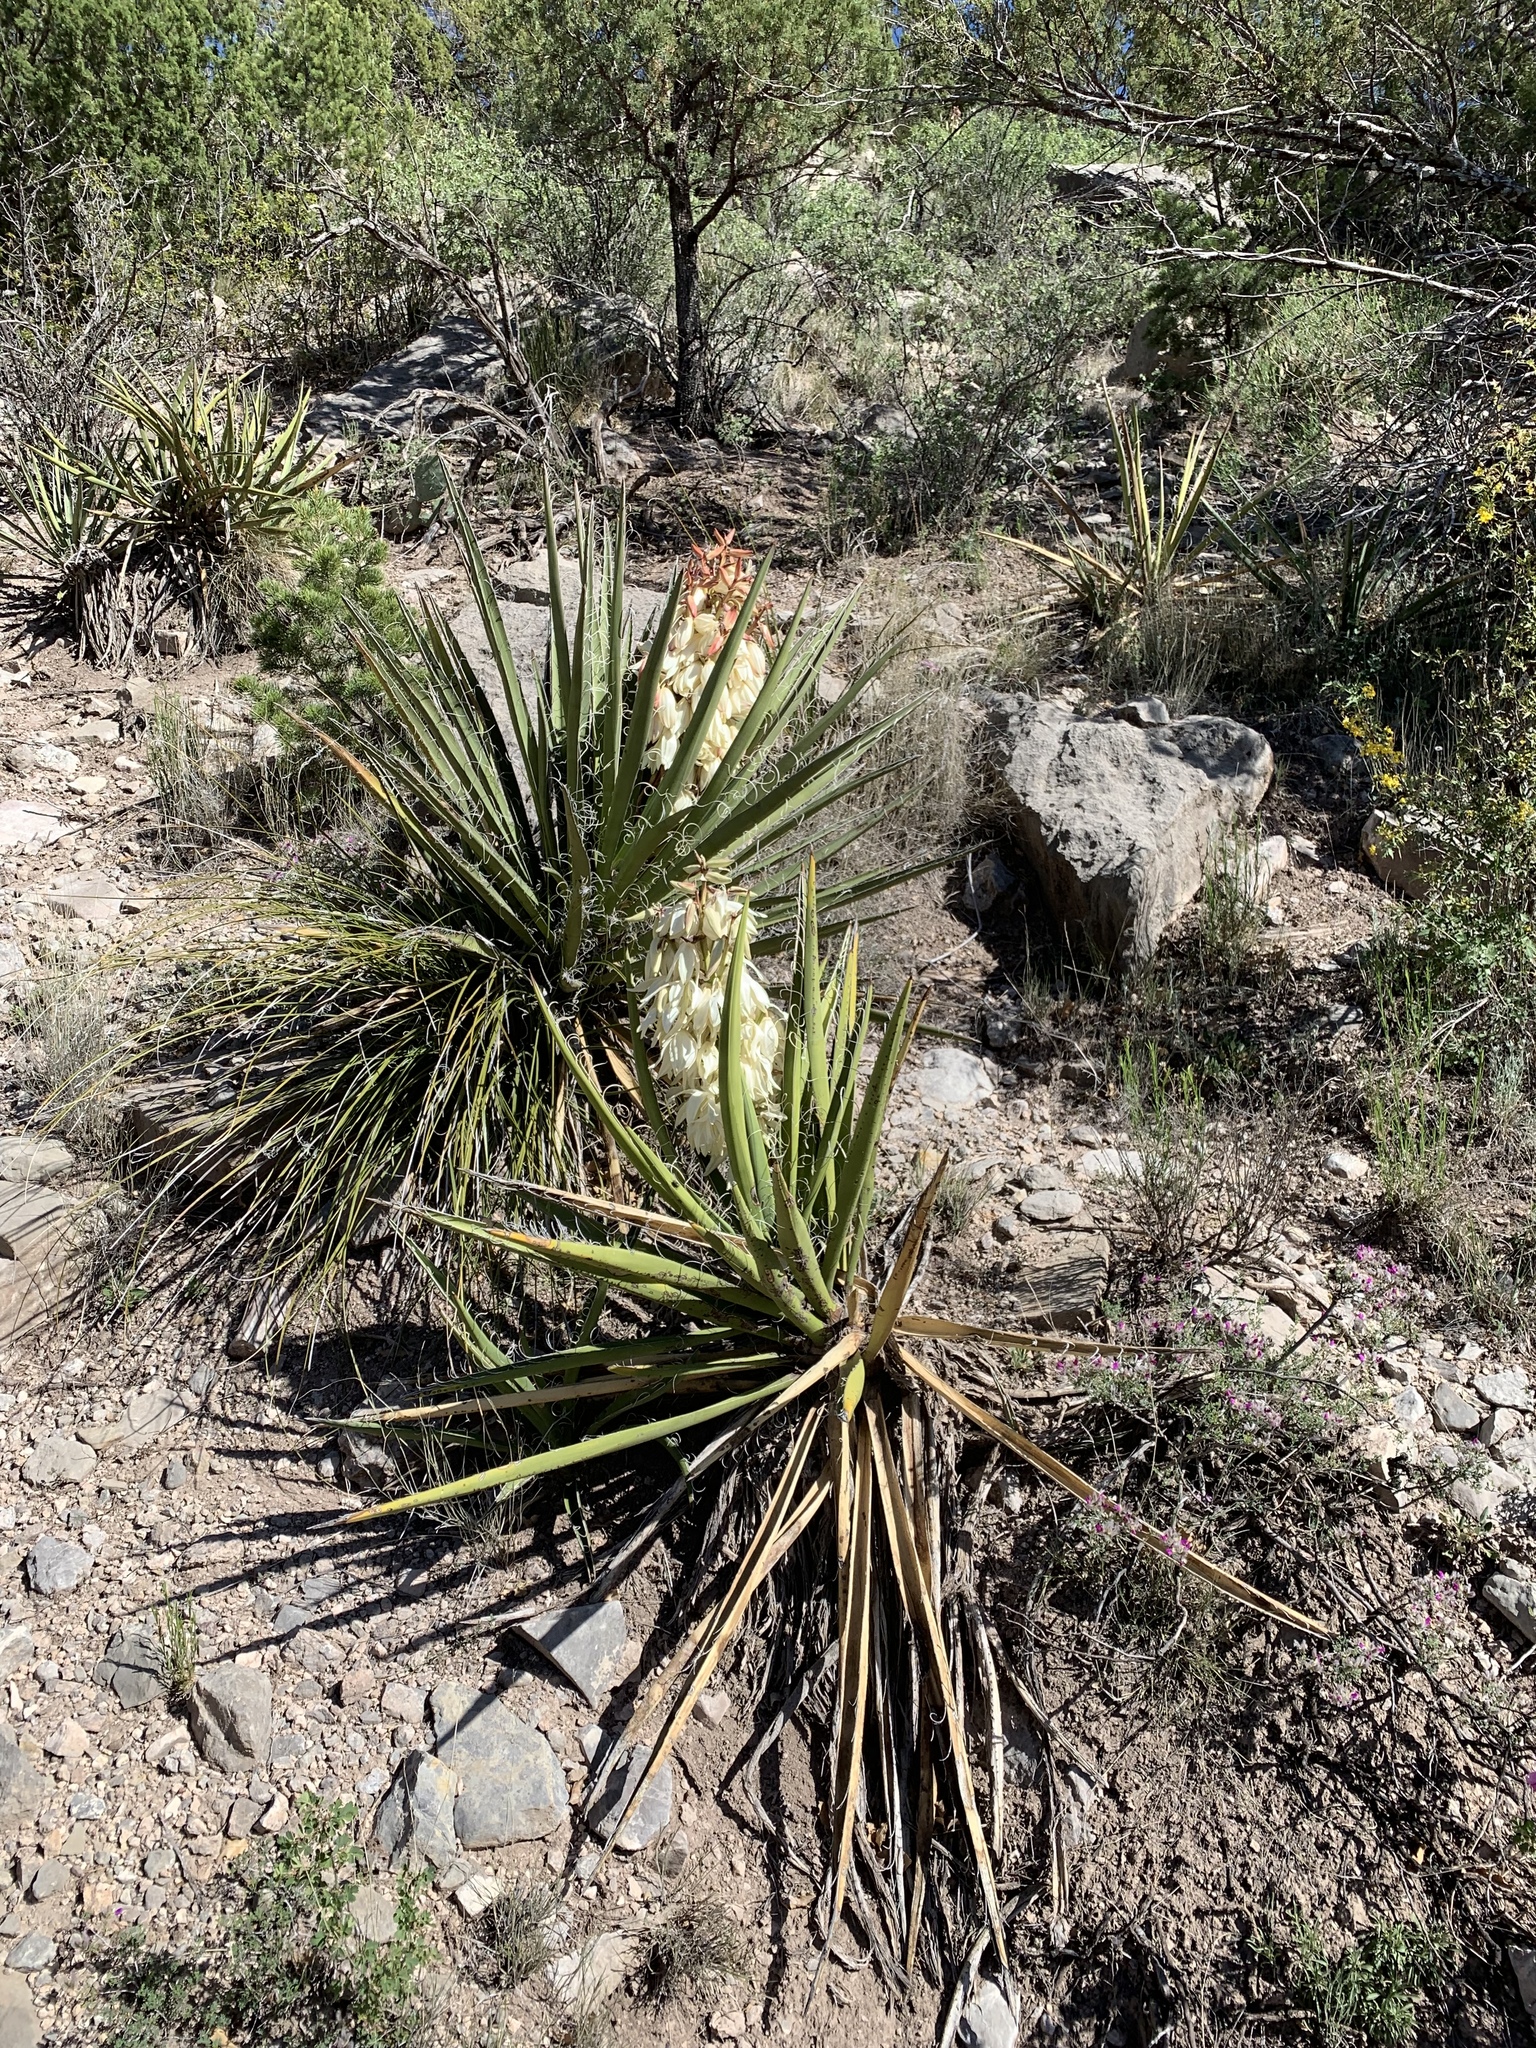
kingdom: Plantae
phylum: Tracheophyta
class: Liliopsida
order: Asparagales
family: Asparagaceae
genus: Yucca
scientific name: Yucca baccata
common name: Banana yucca
